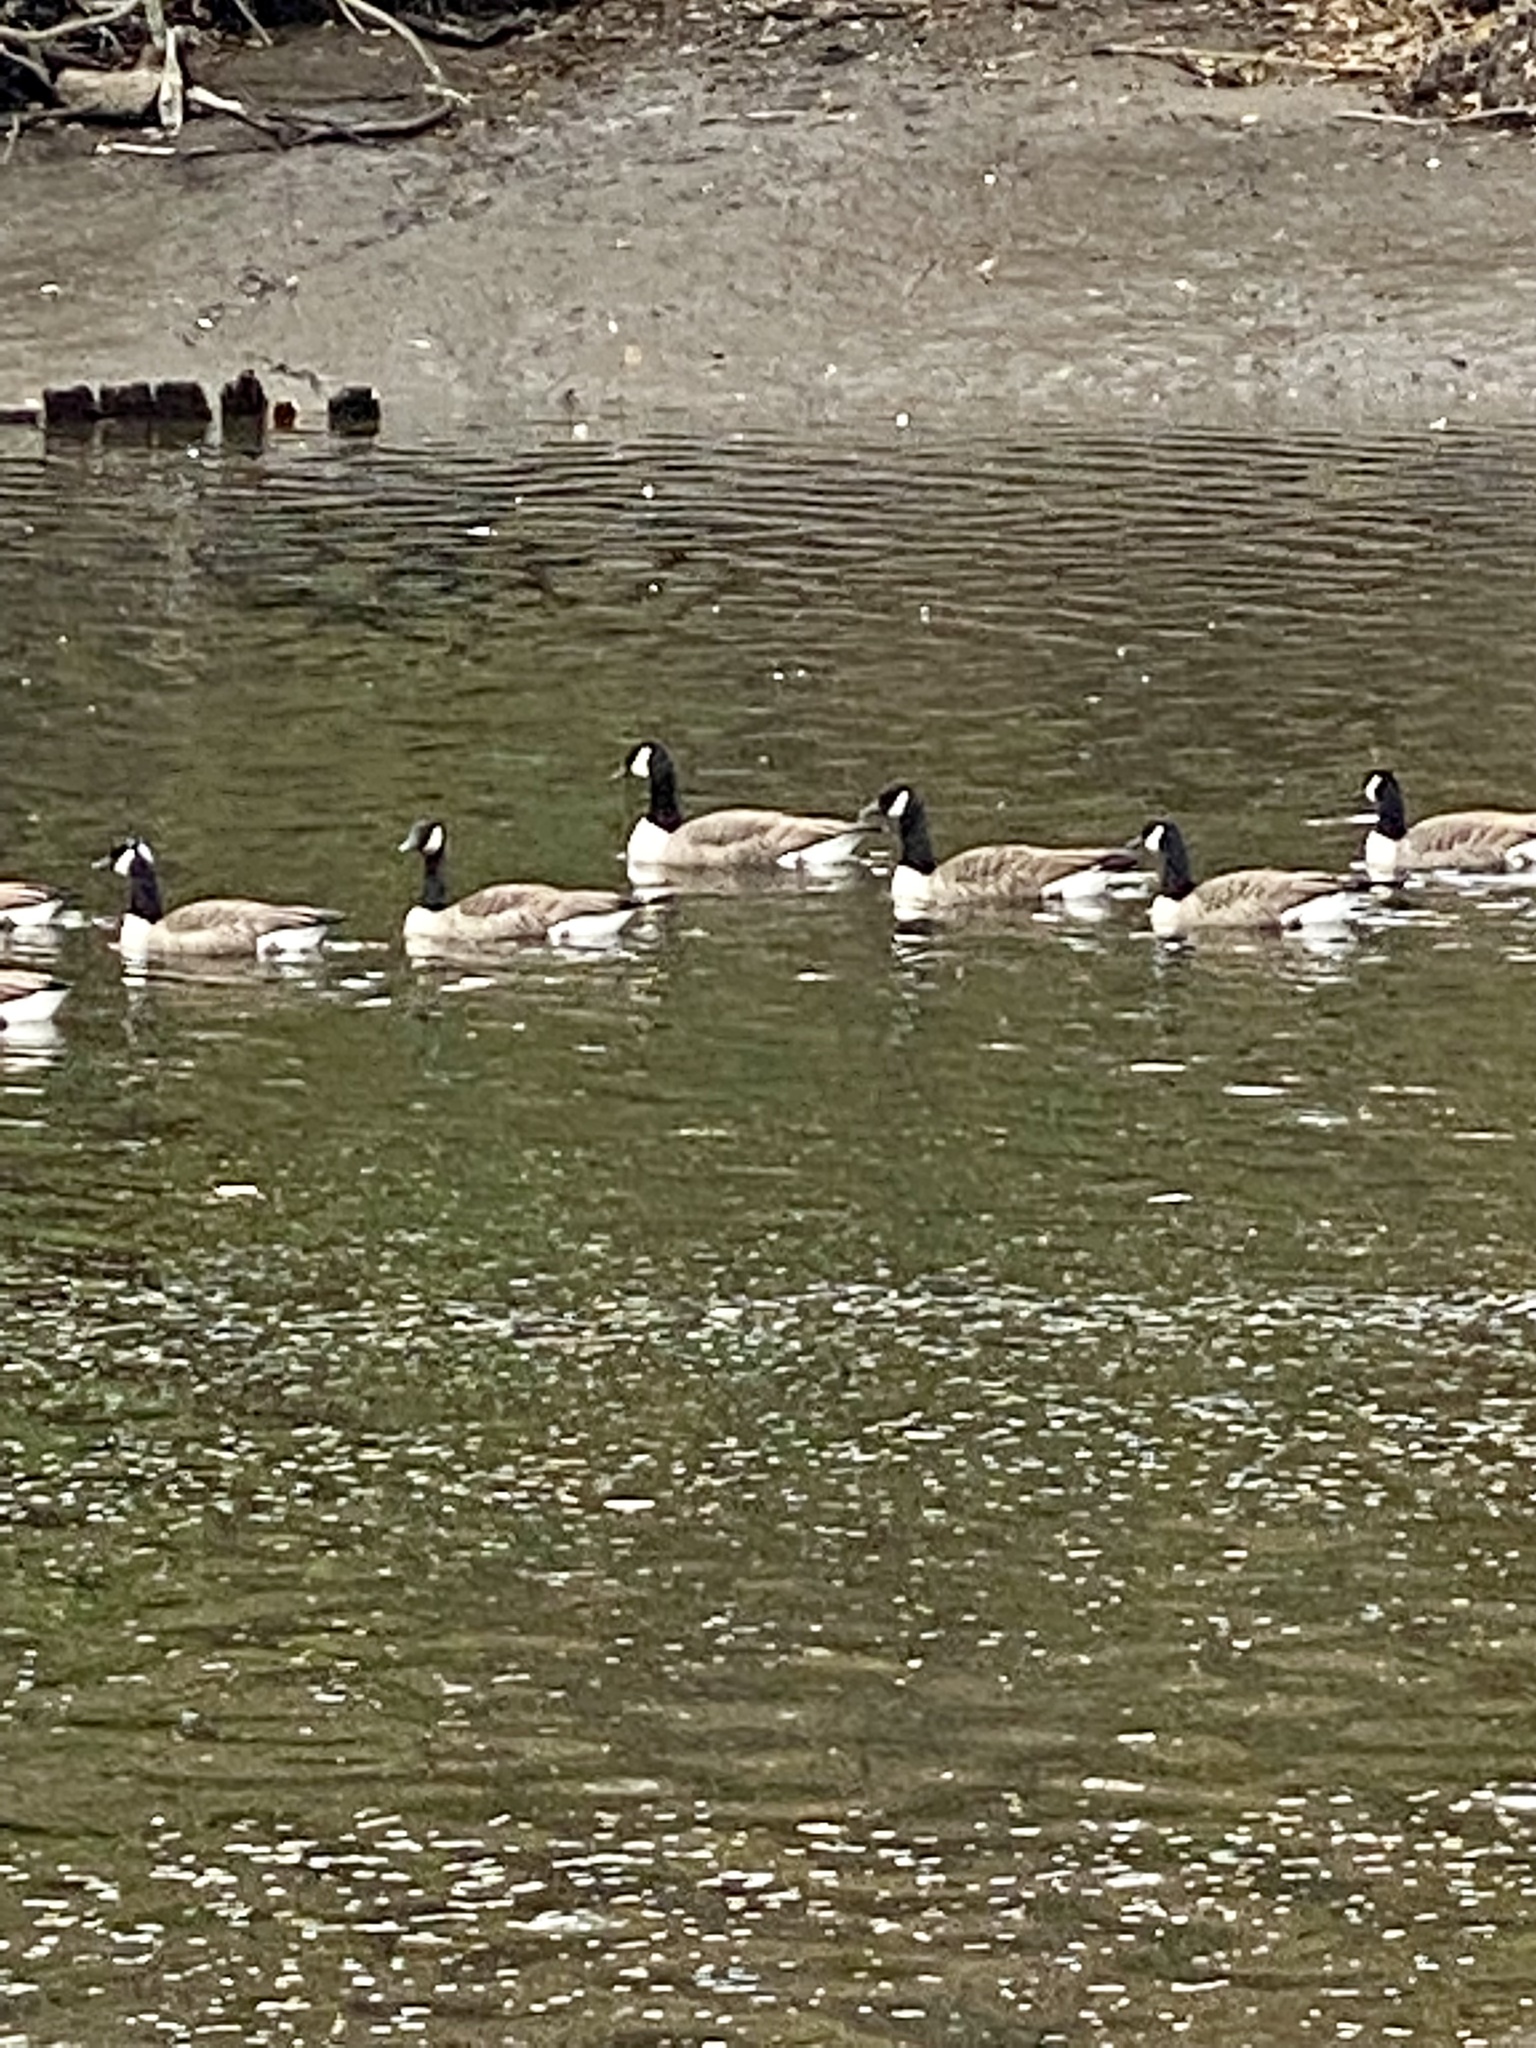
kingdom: Animalia
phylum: Chordata
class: Aves
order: Anseriformes
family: Anatidae
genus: Branta
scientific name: Branta canadensis
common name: Canada goose
